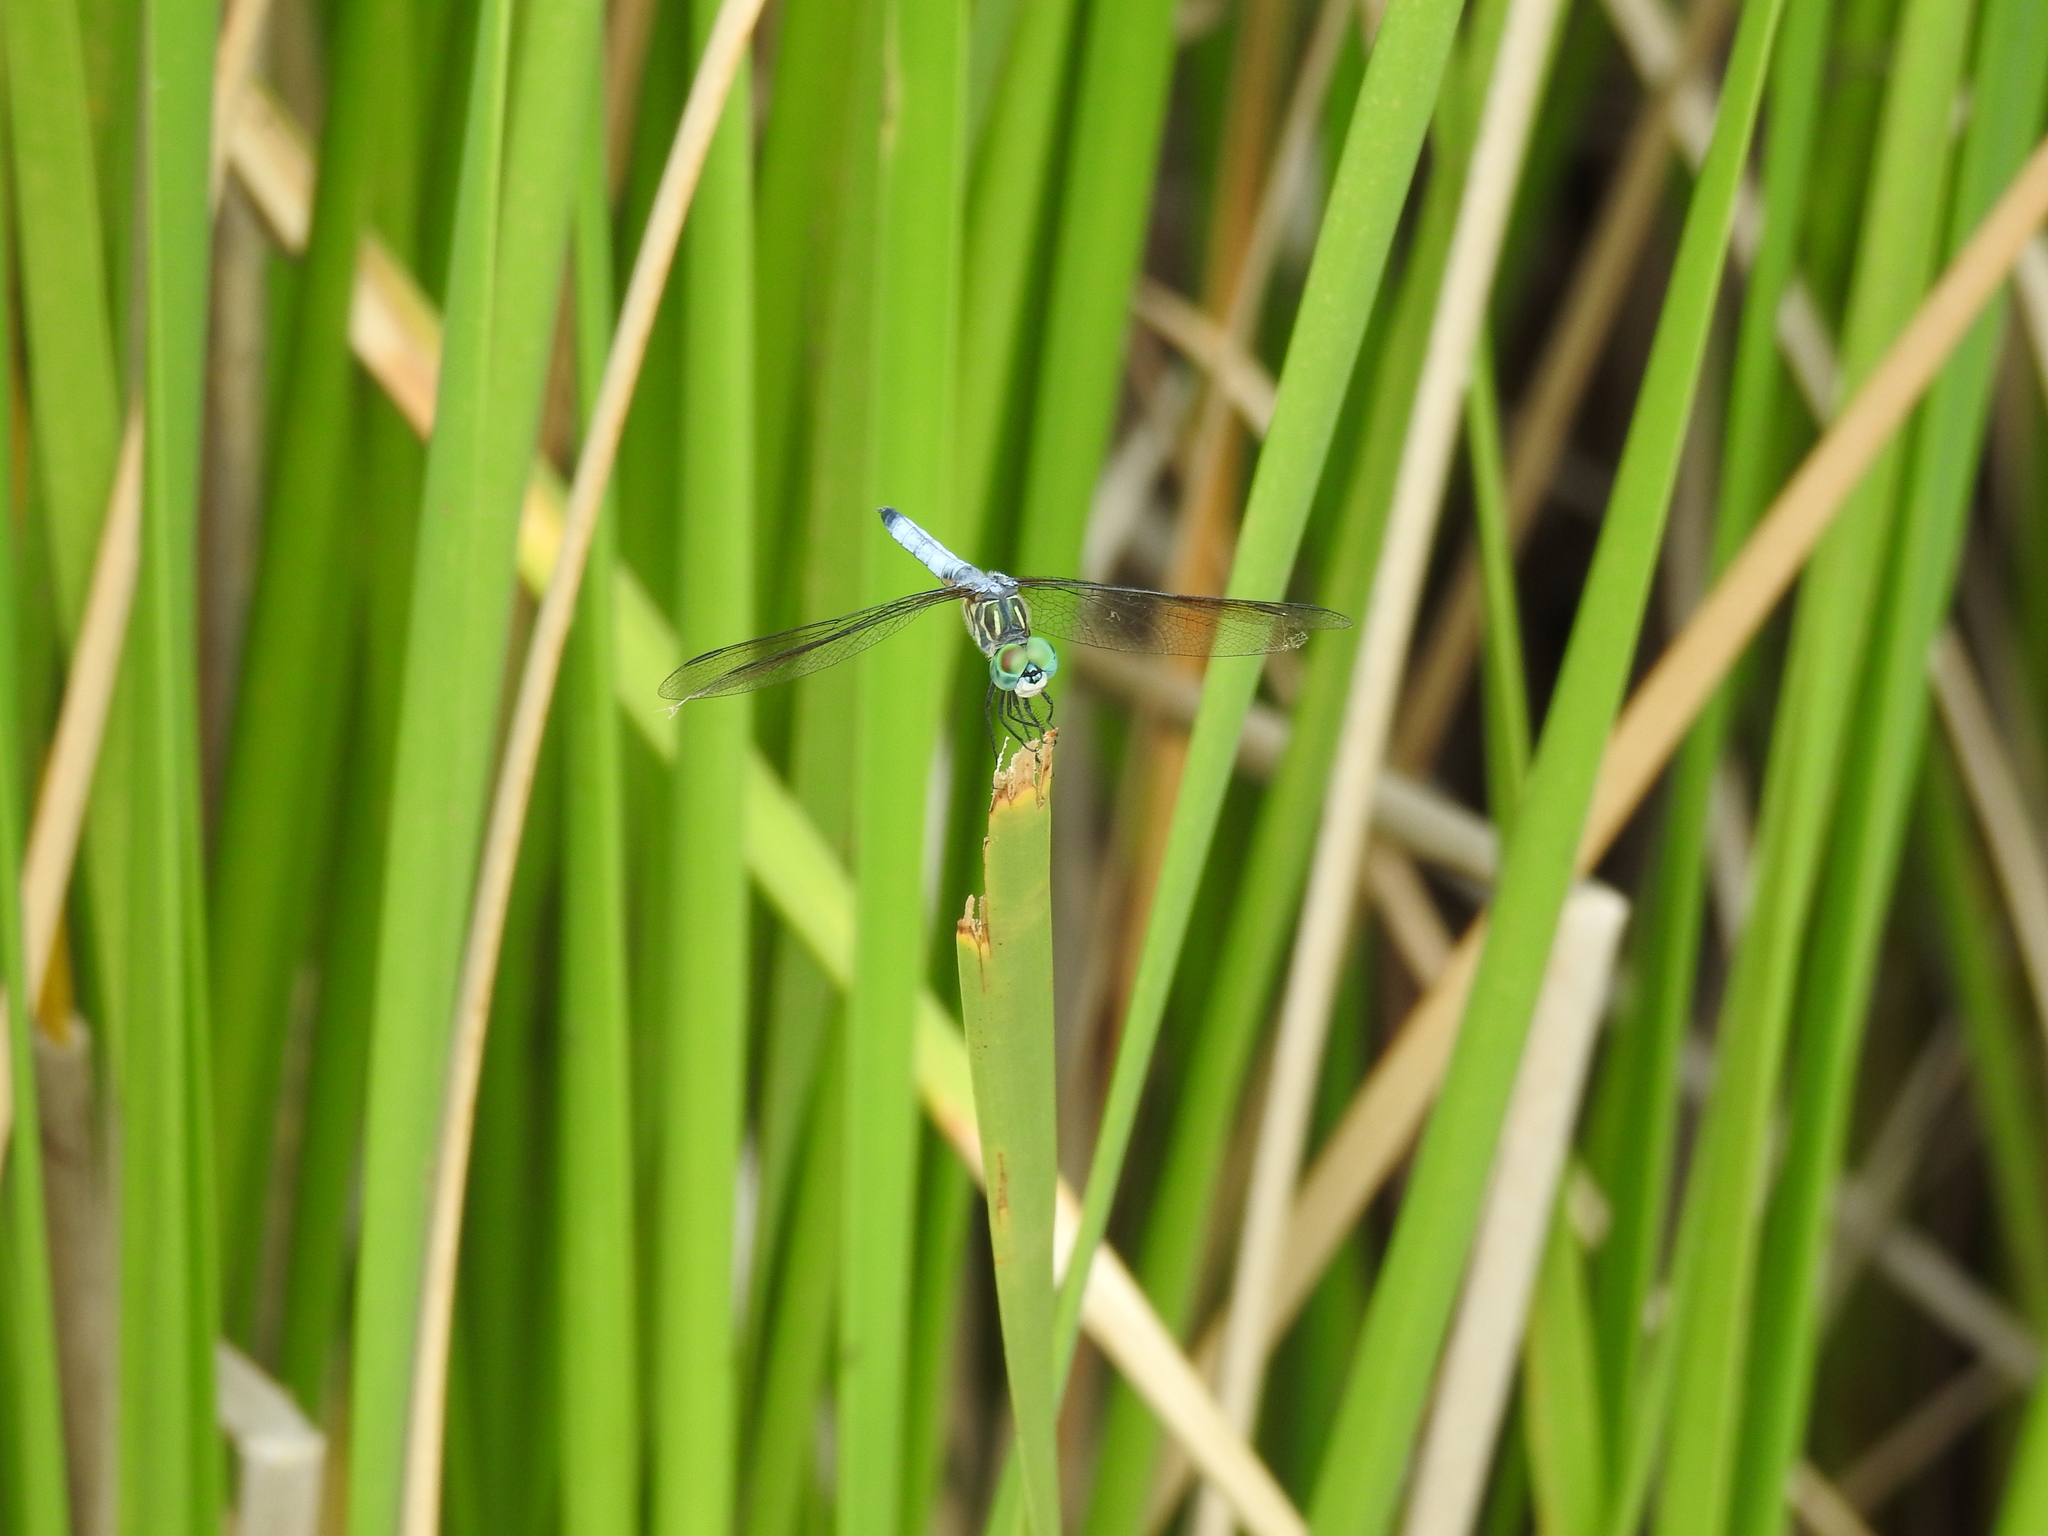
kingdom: Animalia
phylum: Arthropoda
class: Insecta
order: Odonata
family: Libellulidae
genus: Pachydiplax
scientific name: Pachydiplax longipennis
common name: Blue dasher
